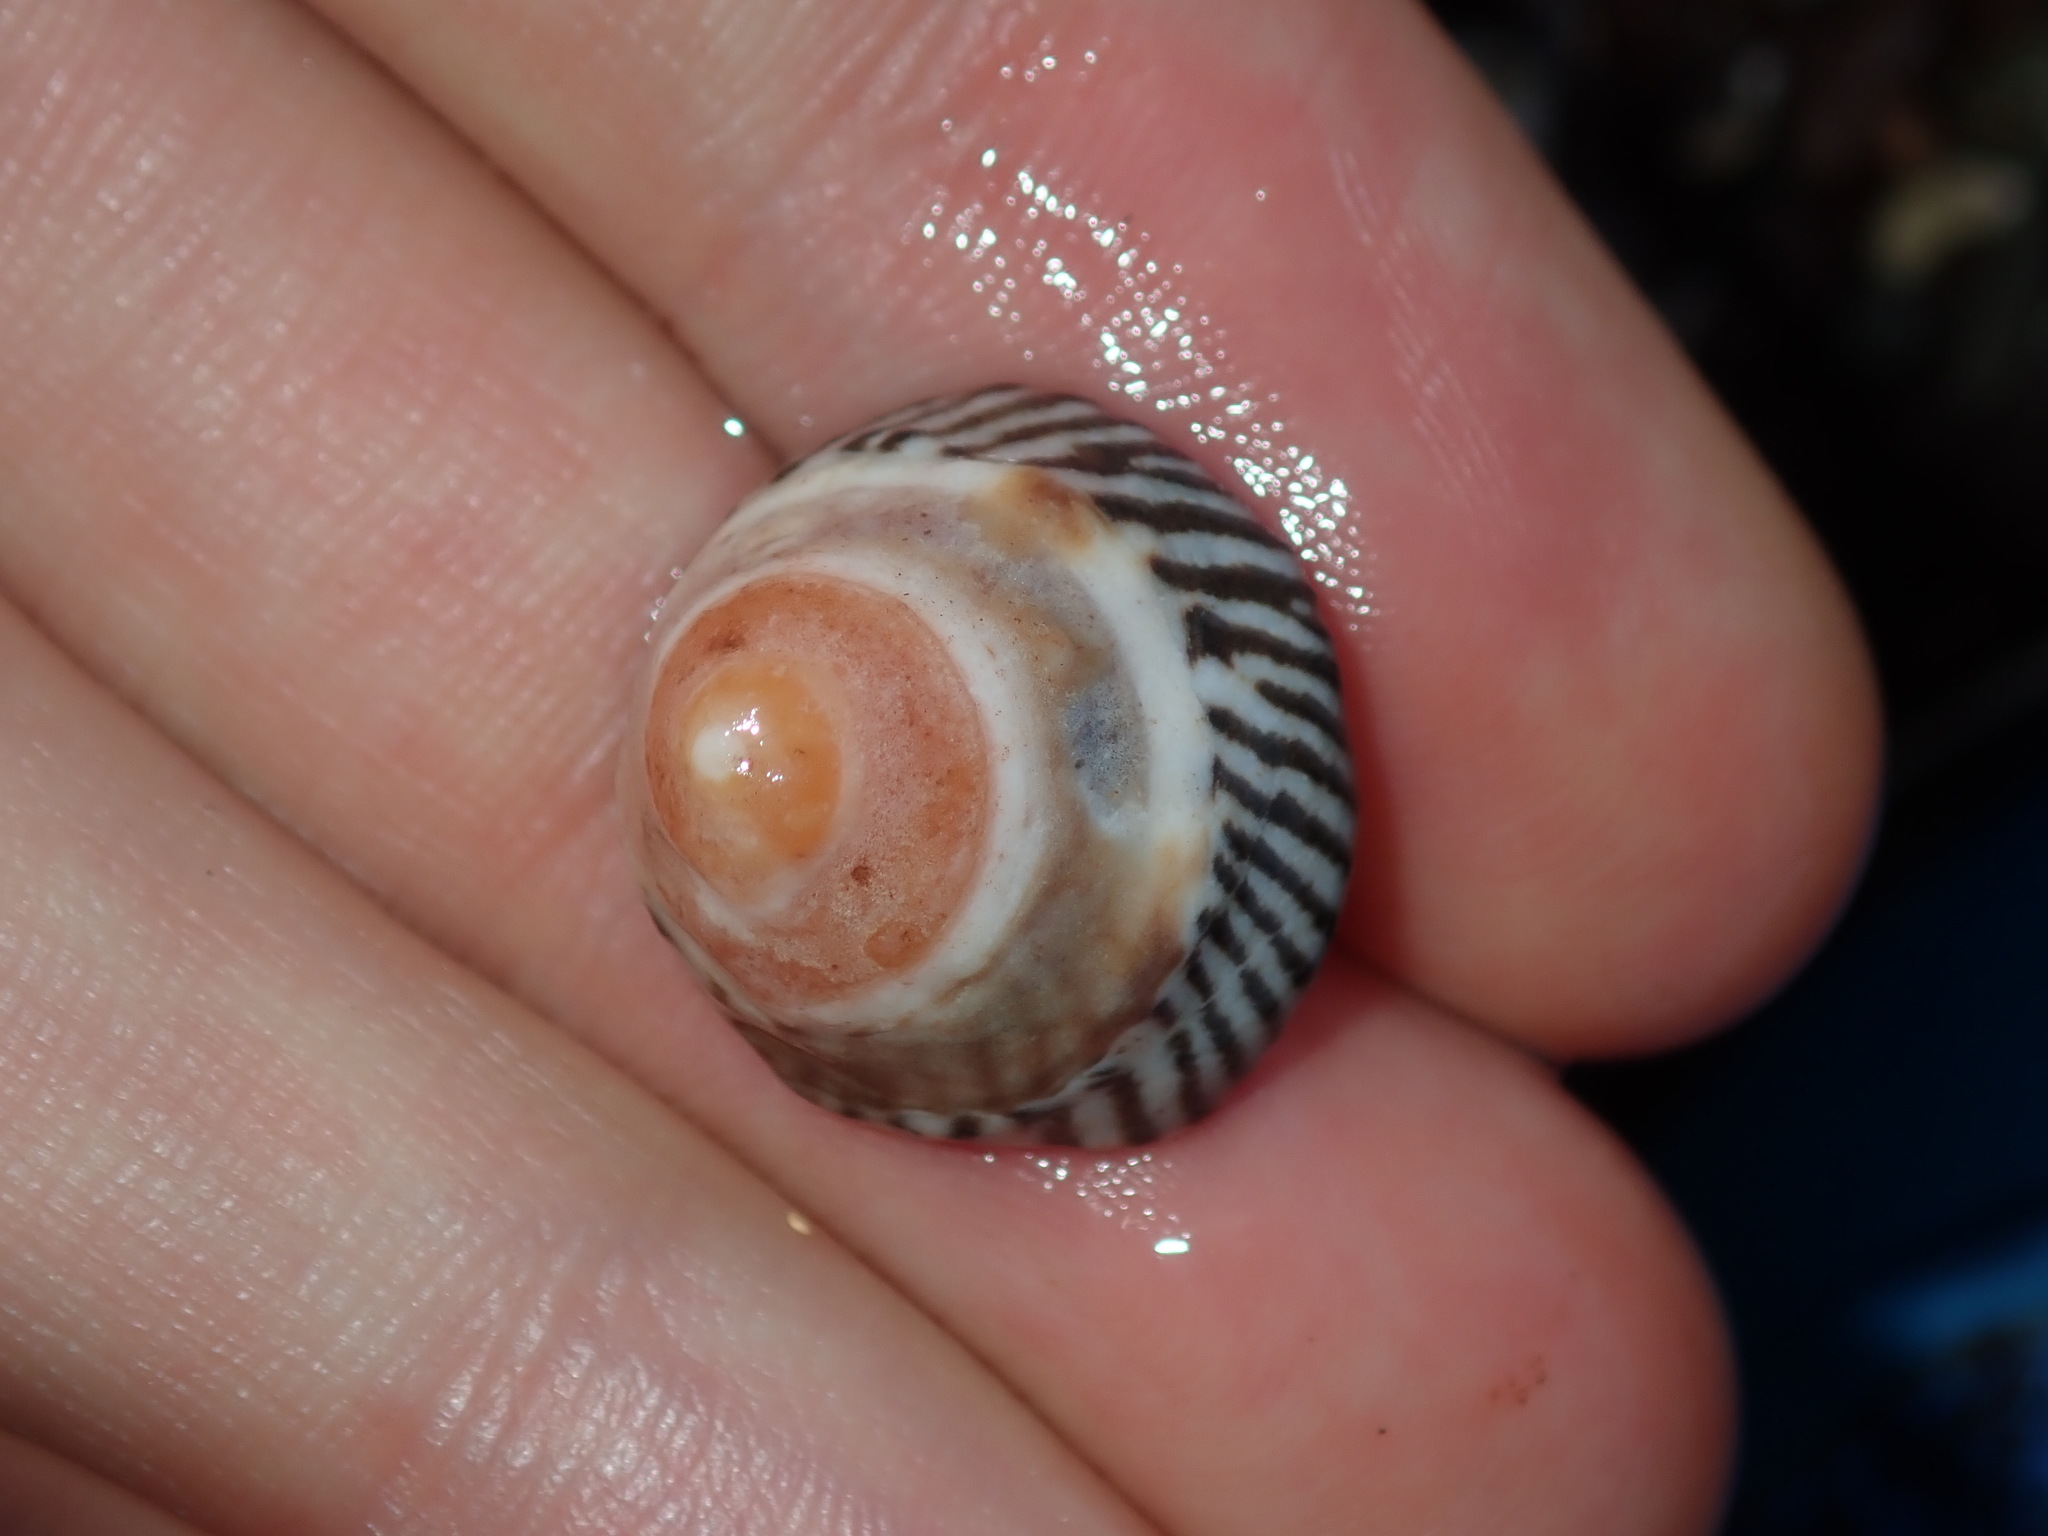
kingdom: Animalia
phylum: Mollusca
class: Gastropoda
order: Littorinimorpha
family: Littorinidae
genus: Bembicium
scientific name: Bembicium nanum
